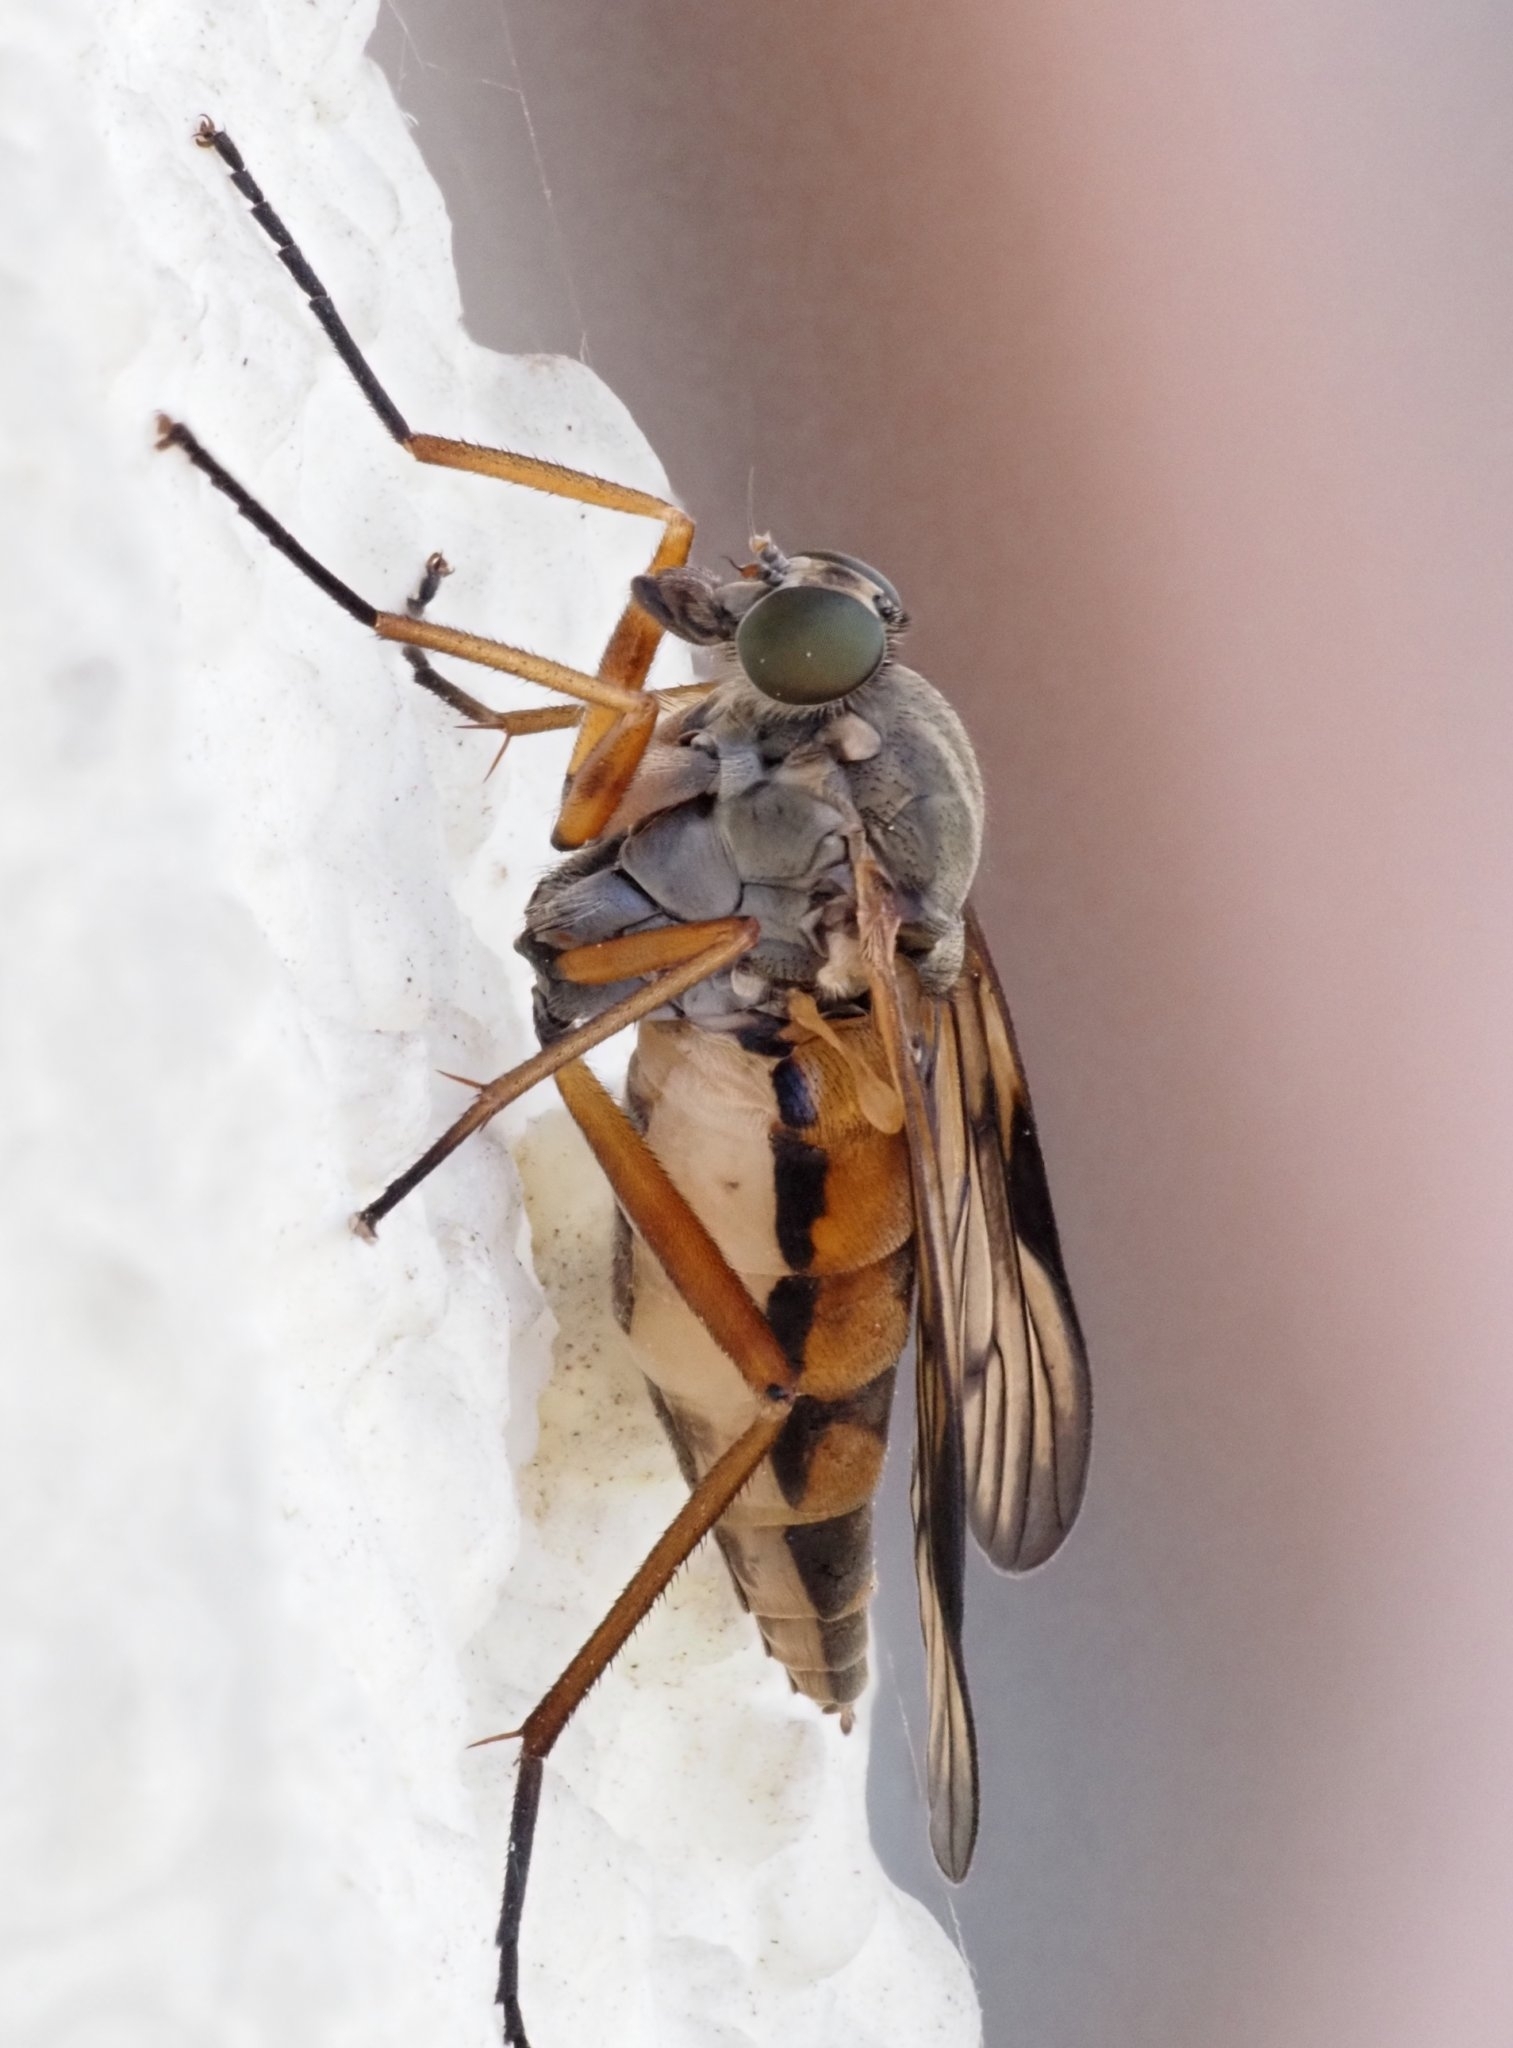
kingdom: Animalia
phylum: Arthropoda
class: Insecta
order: Diptera
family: Rhagionidae
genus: Rhagio
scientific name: Rhagio scolopacea
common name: Downlooker snipefly
